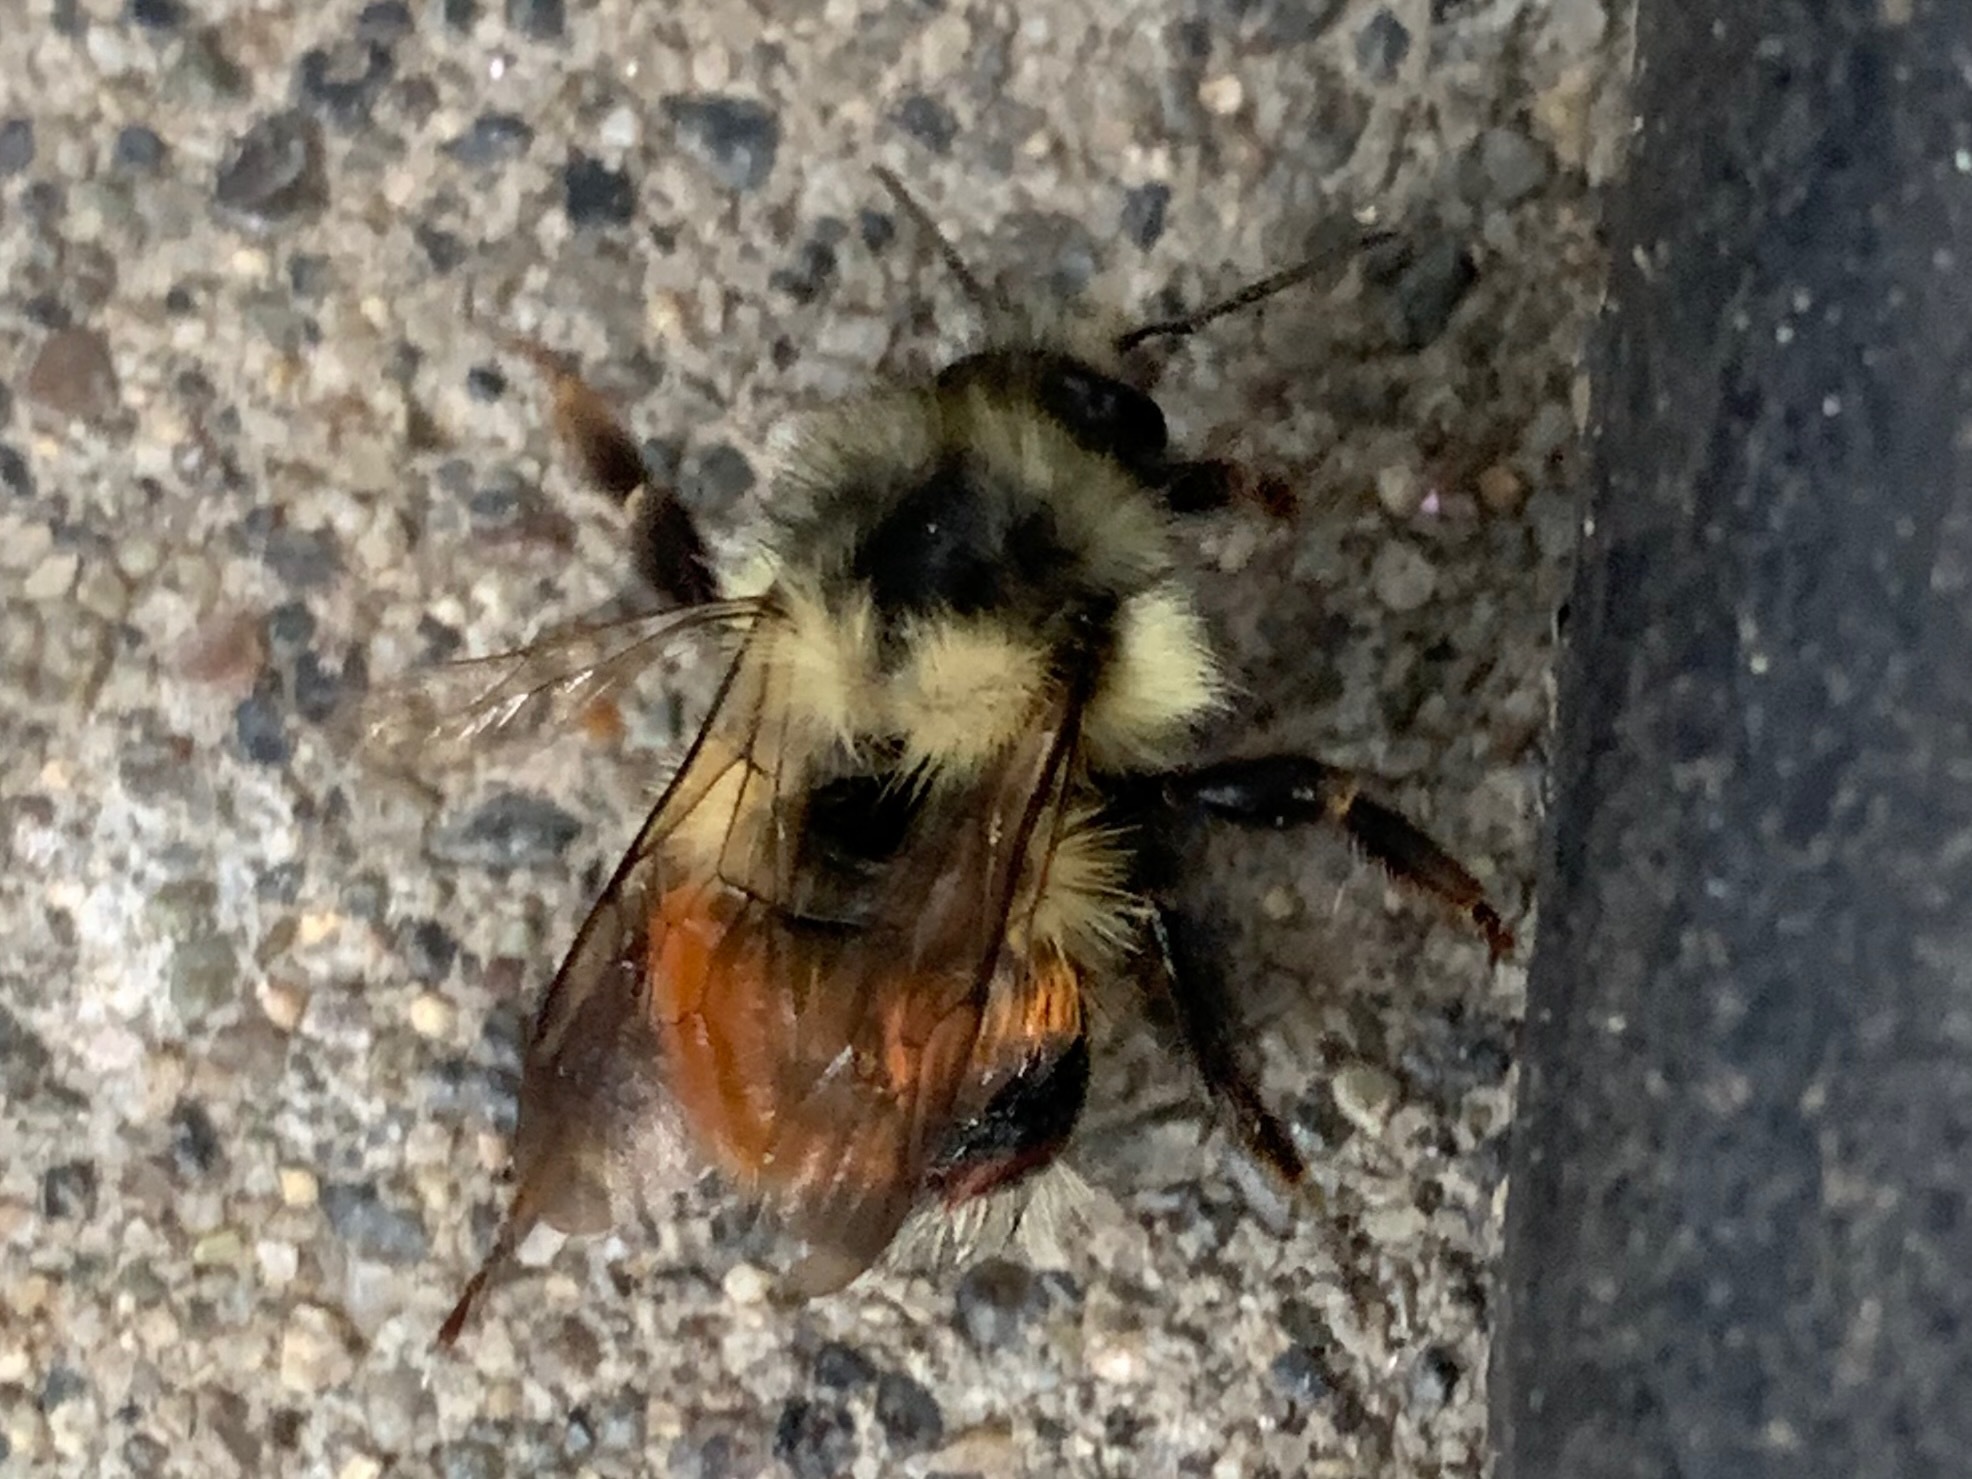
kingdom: Animalia
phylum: Arthropoda
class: Insecta
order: Hymenoptera
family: Apidae
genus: Bombus
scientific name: Bombus melanopygus
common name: Black tail bumble bee
